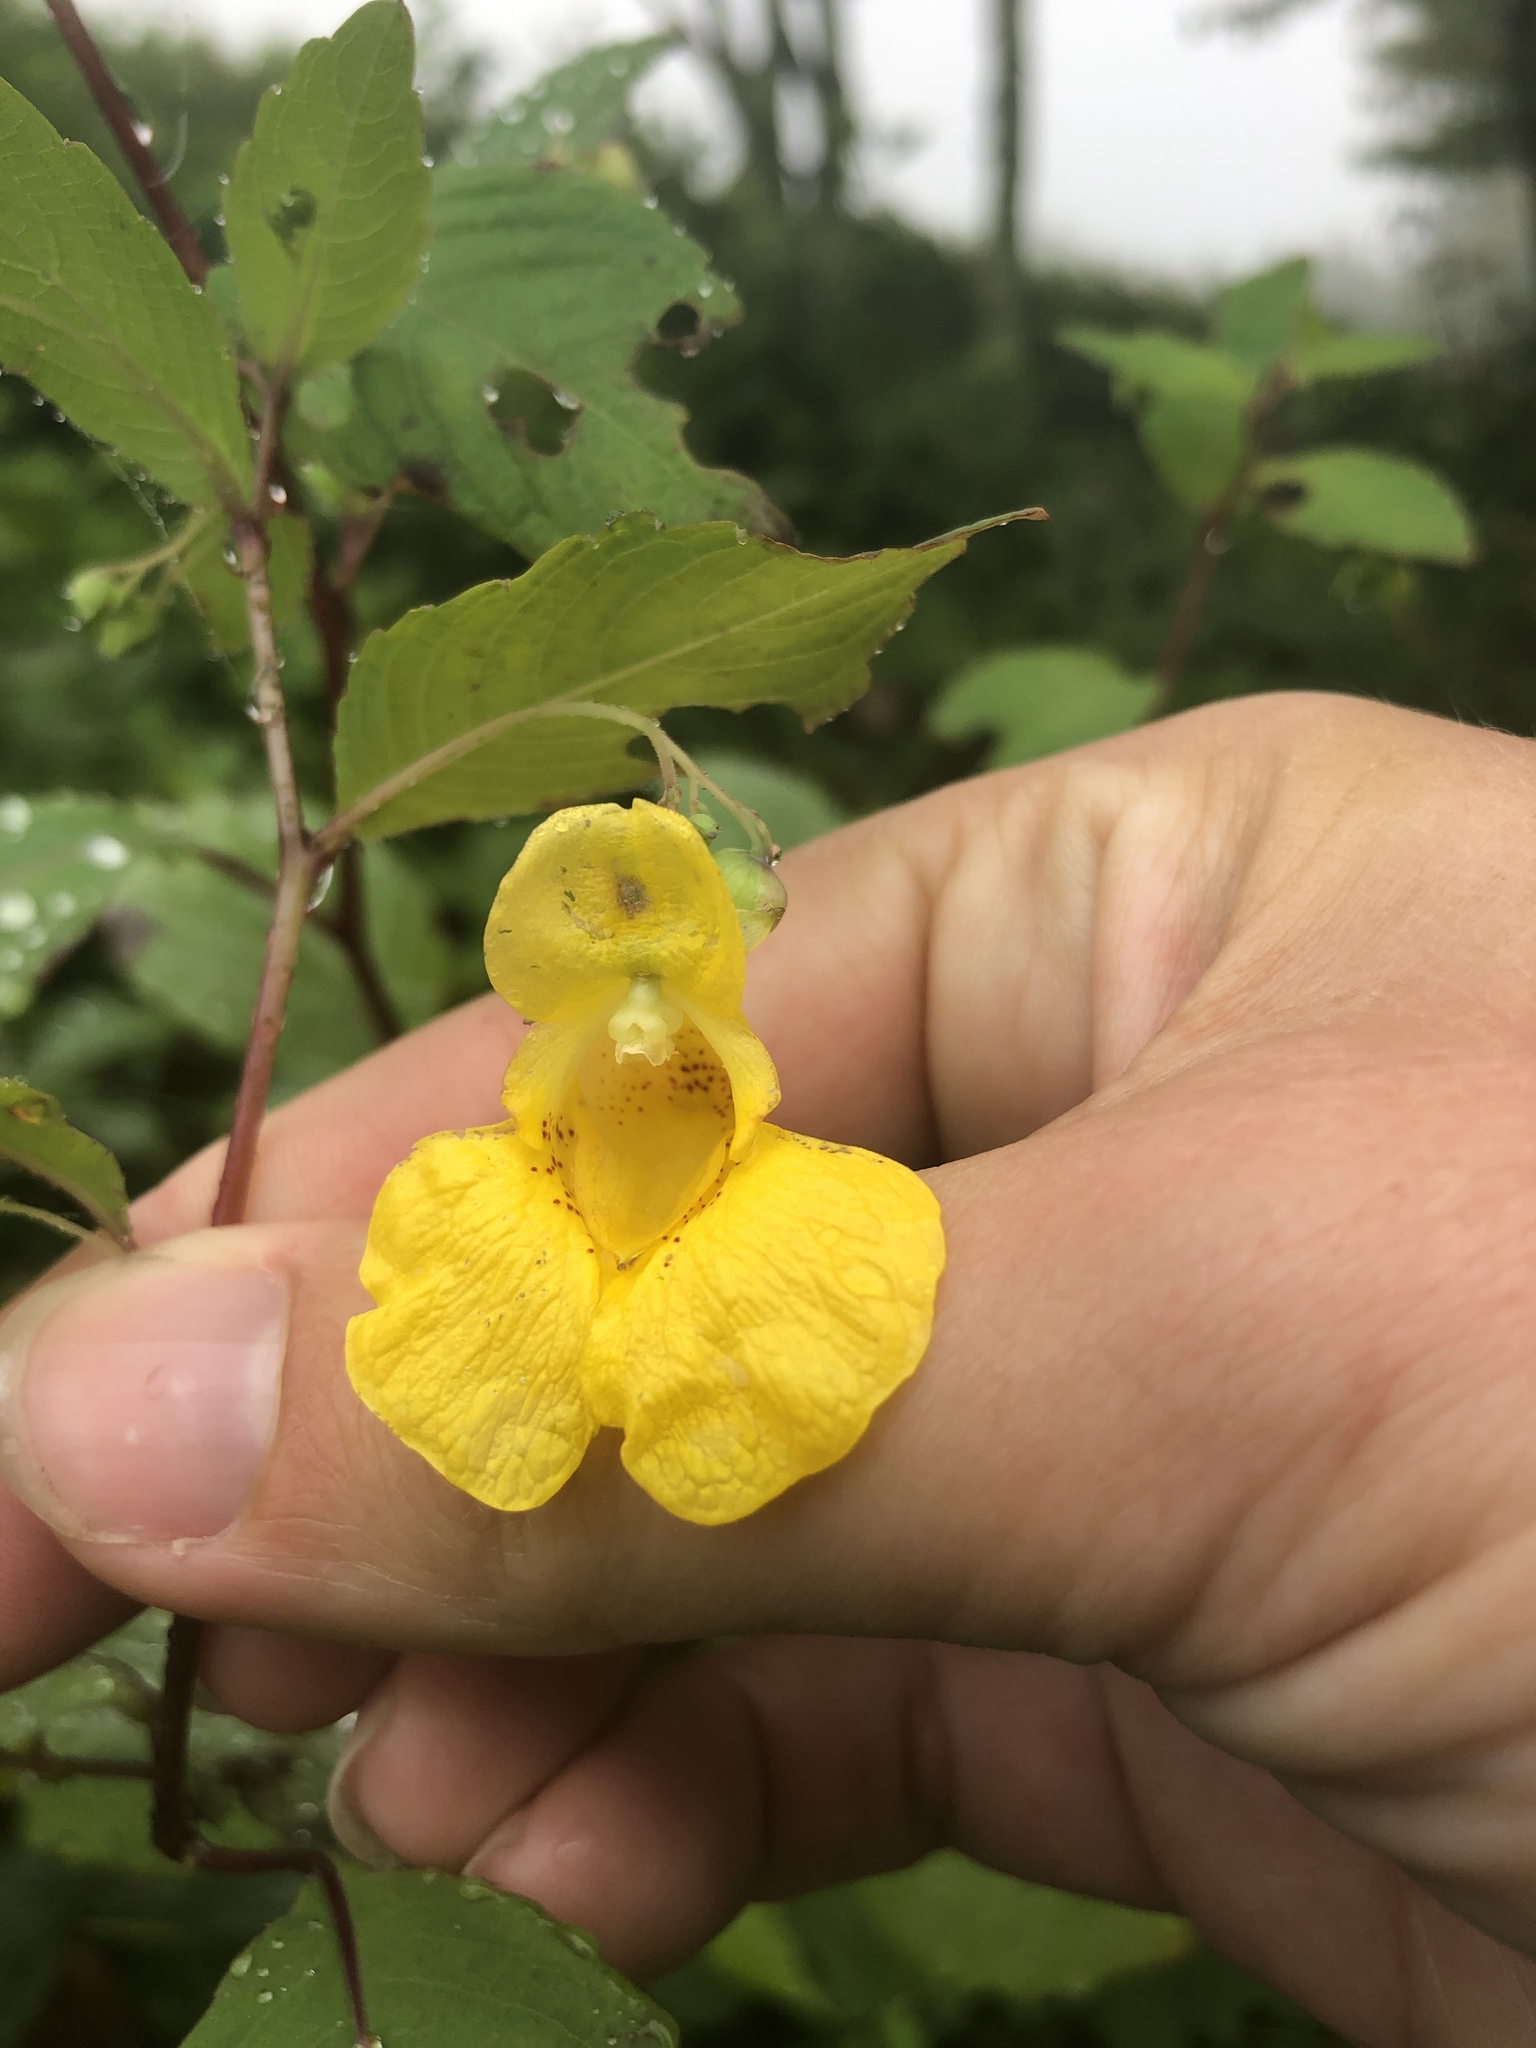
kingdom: Plantae
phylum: Tracheophyta
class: Magnoliopsida
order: Ericales
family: Balsaminaceae
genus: Impatiens
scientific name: Impatiens pallida
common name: Pale snapweed
